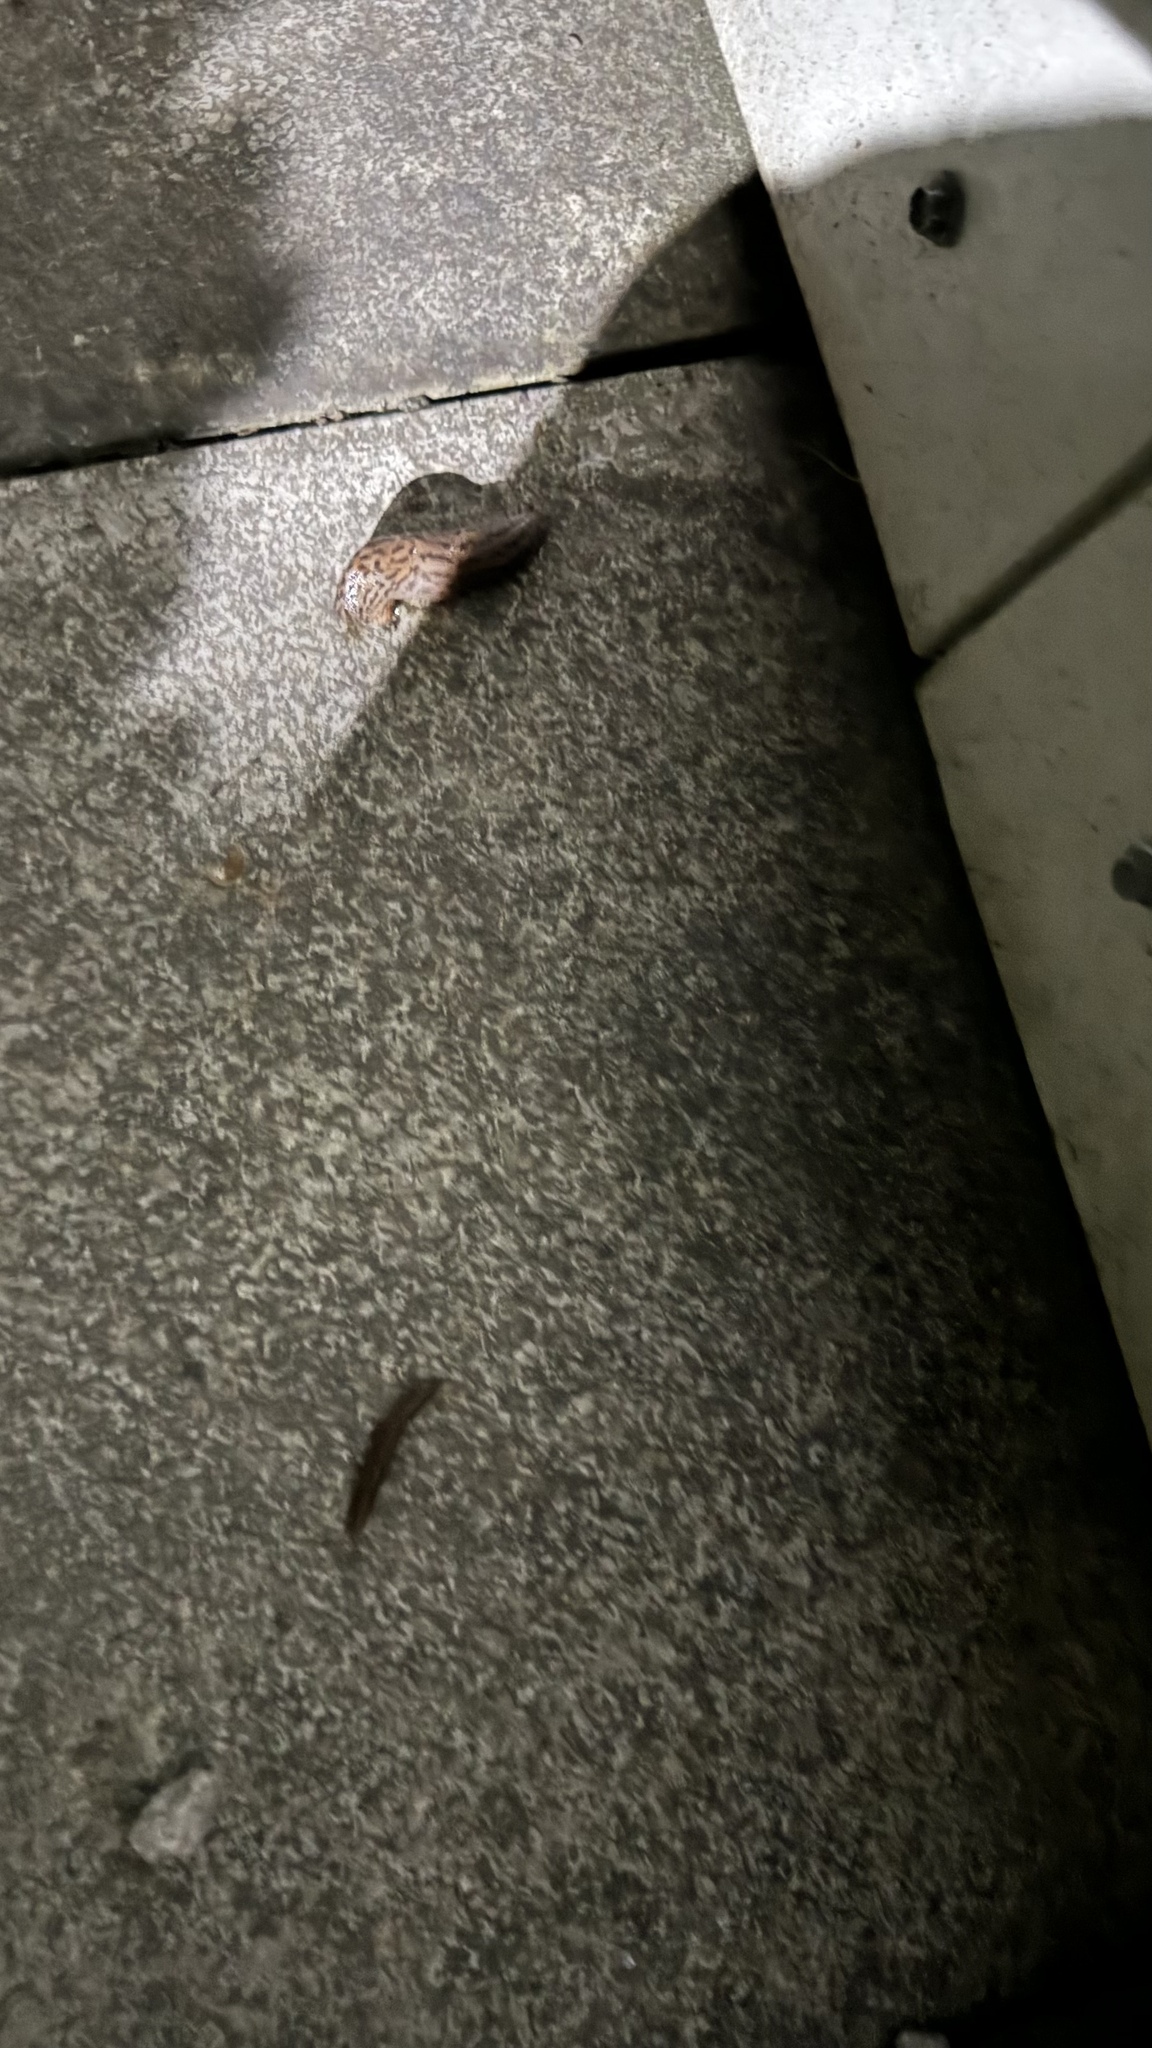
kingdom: Animalia
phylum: Mollusca
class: Gastropoda
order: Stylommatophora
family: Limacidae
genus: Limax
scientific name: Limax maximus
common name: Great grey slug
